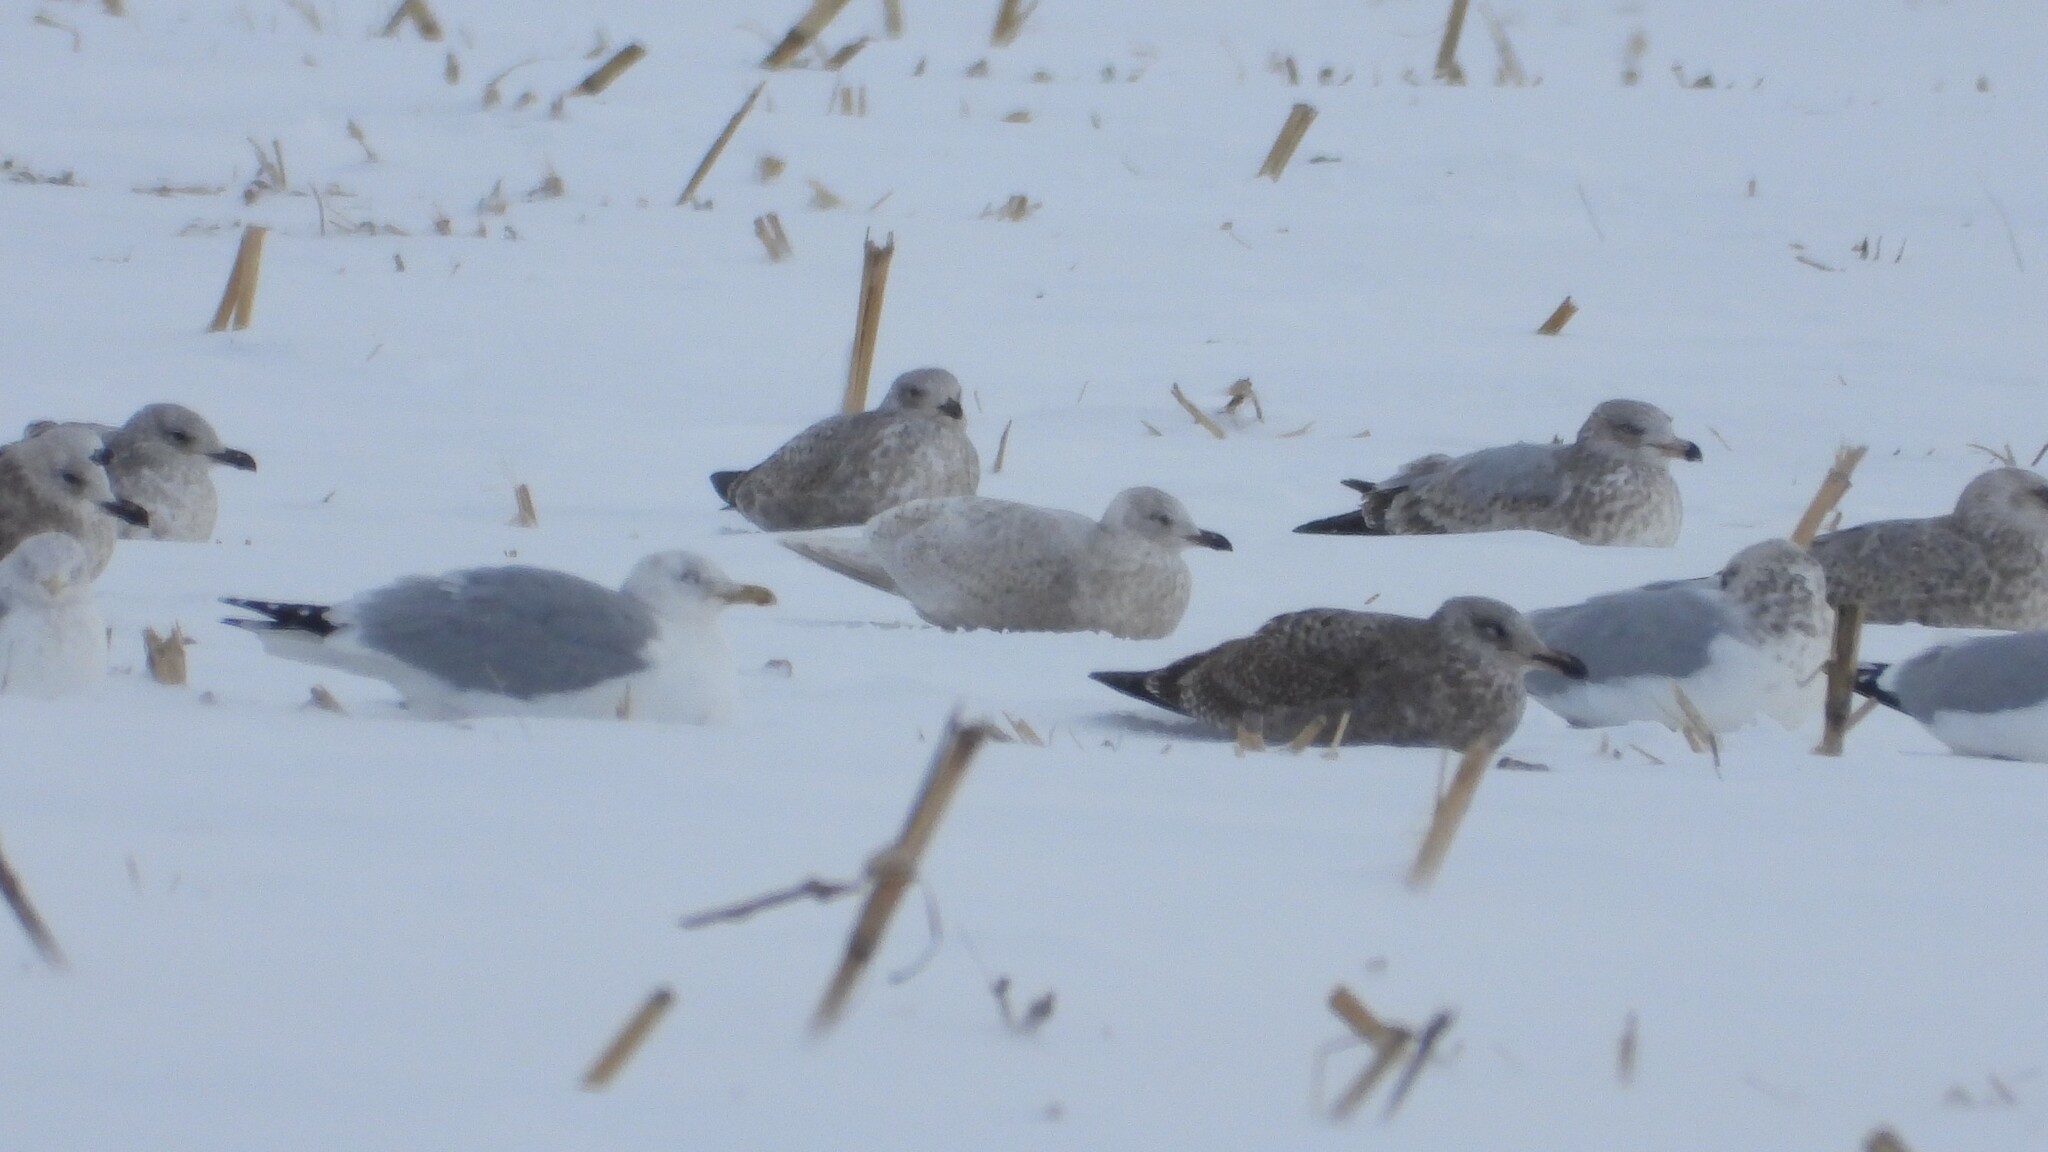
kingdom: Animalia
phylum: Chordata
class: Aves
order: Charadriiformes
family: Laridae
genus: Larus
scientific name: Larus glaucoides
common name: Iceland gull
